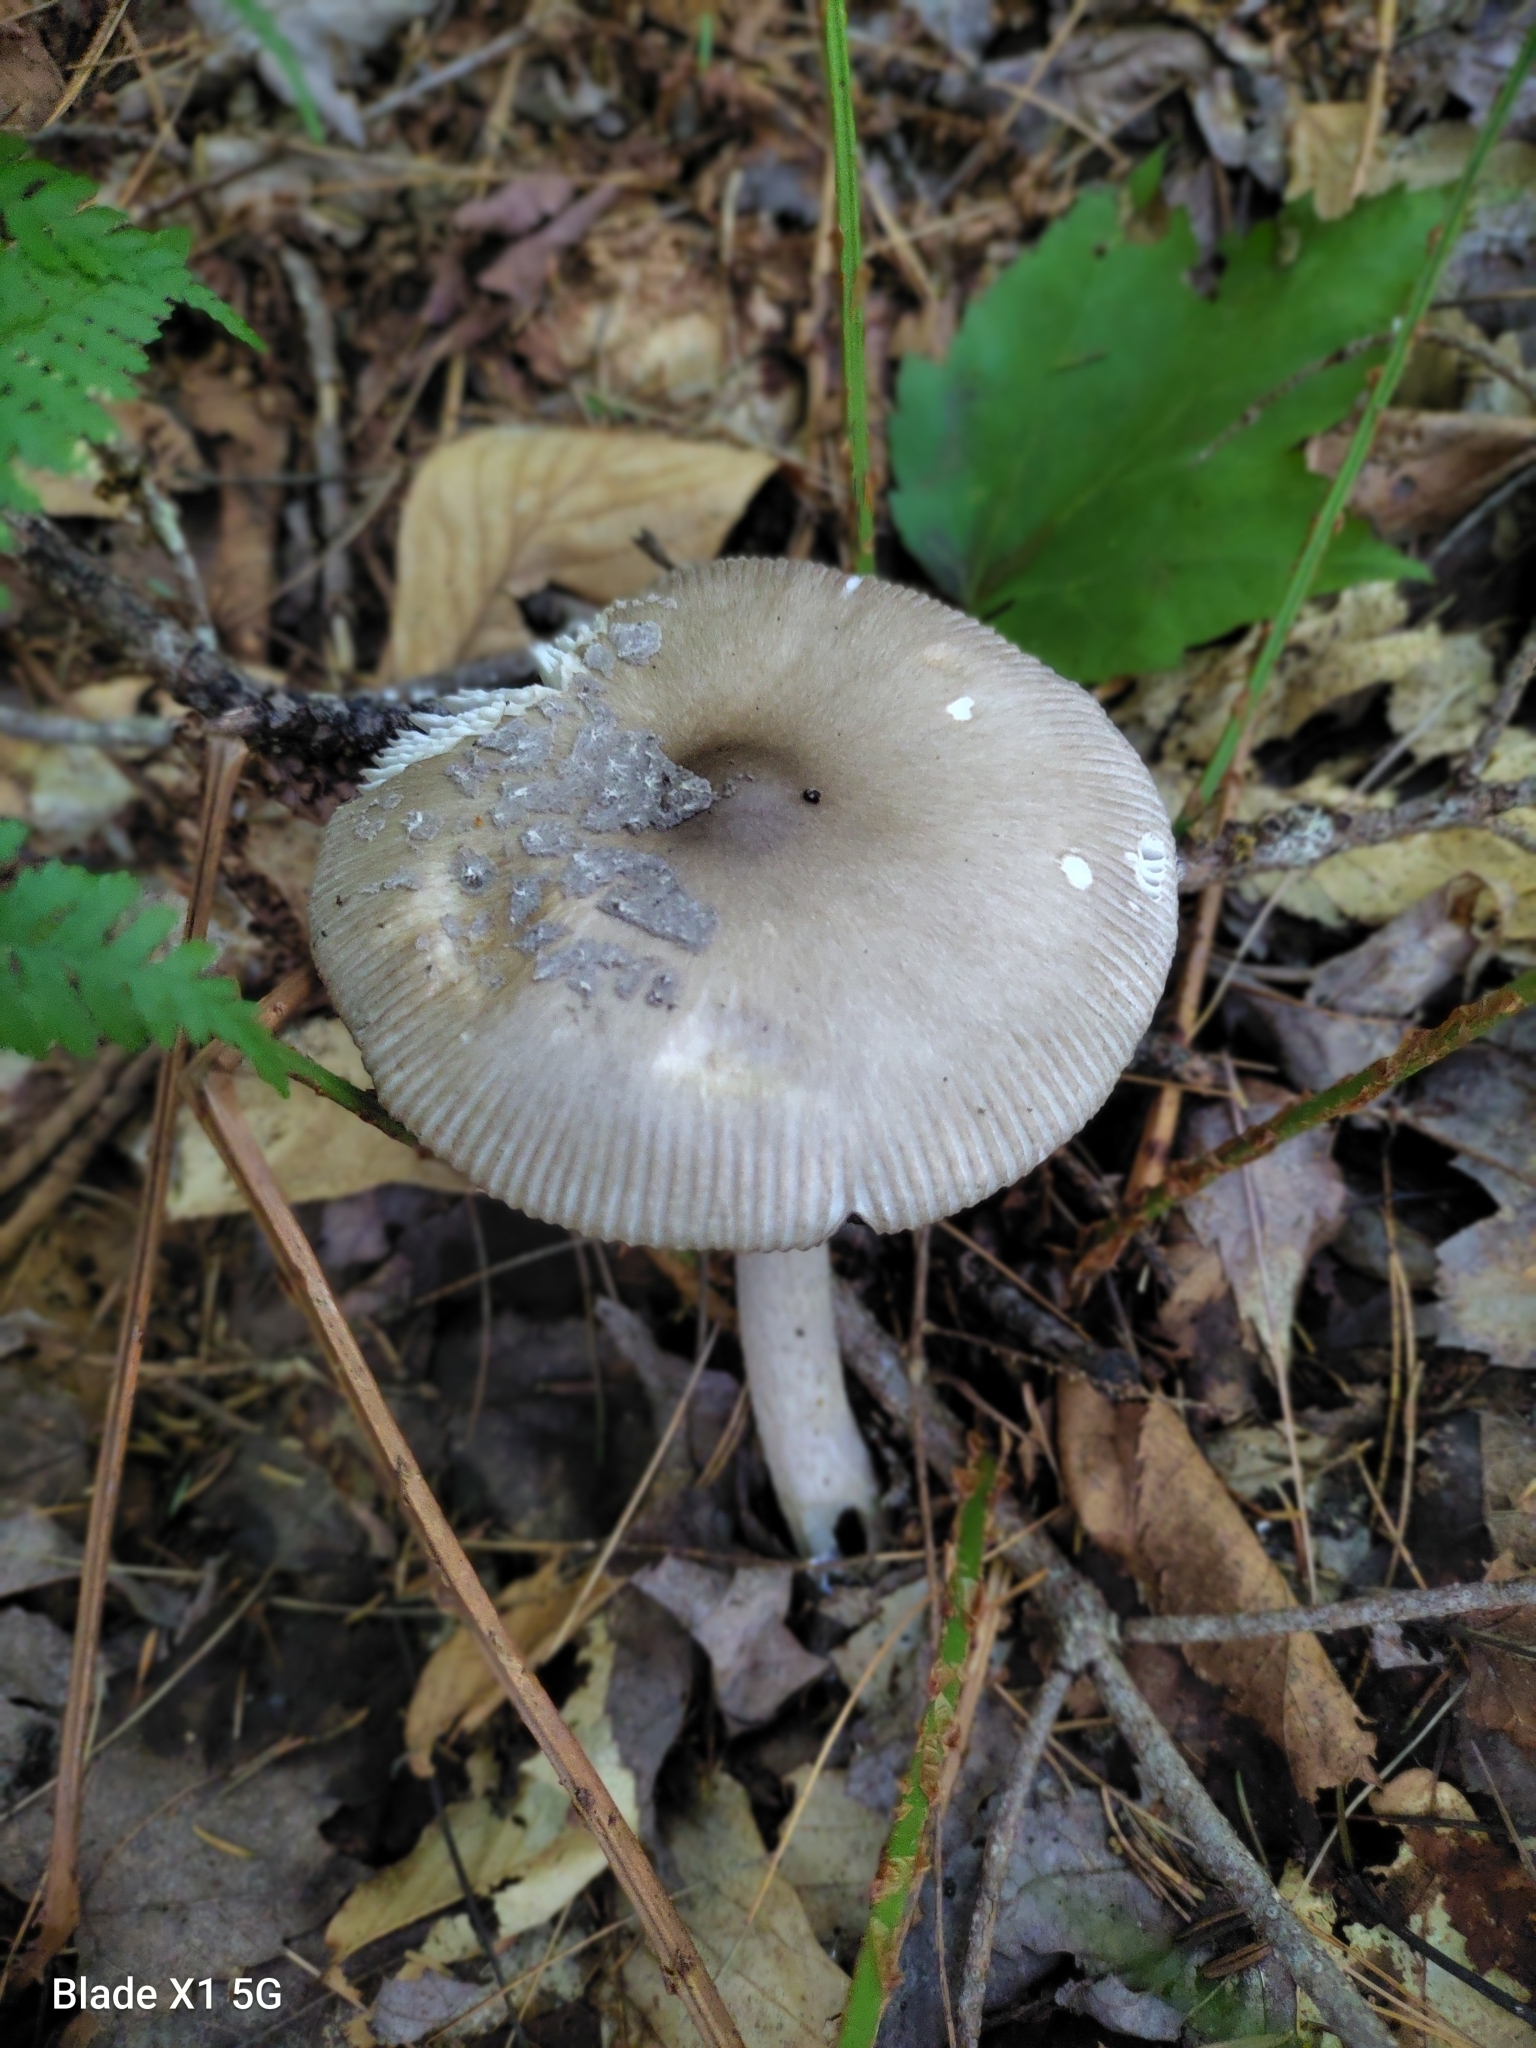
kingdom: Fungi
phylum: Basidiomycota
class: Agaricomycetes
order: Agaricales
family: Amanitaceae
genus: Amanita
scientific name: Amanita rhacopus
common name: Shaggy legged ringless amanita
